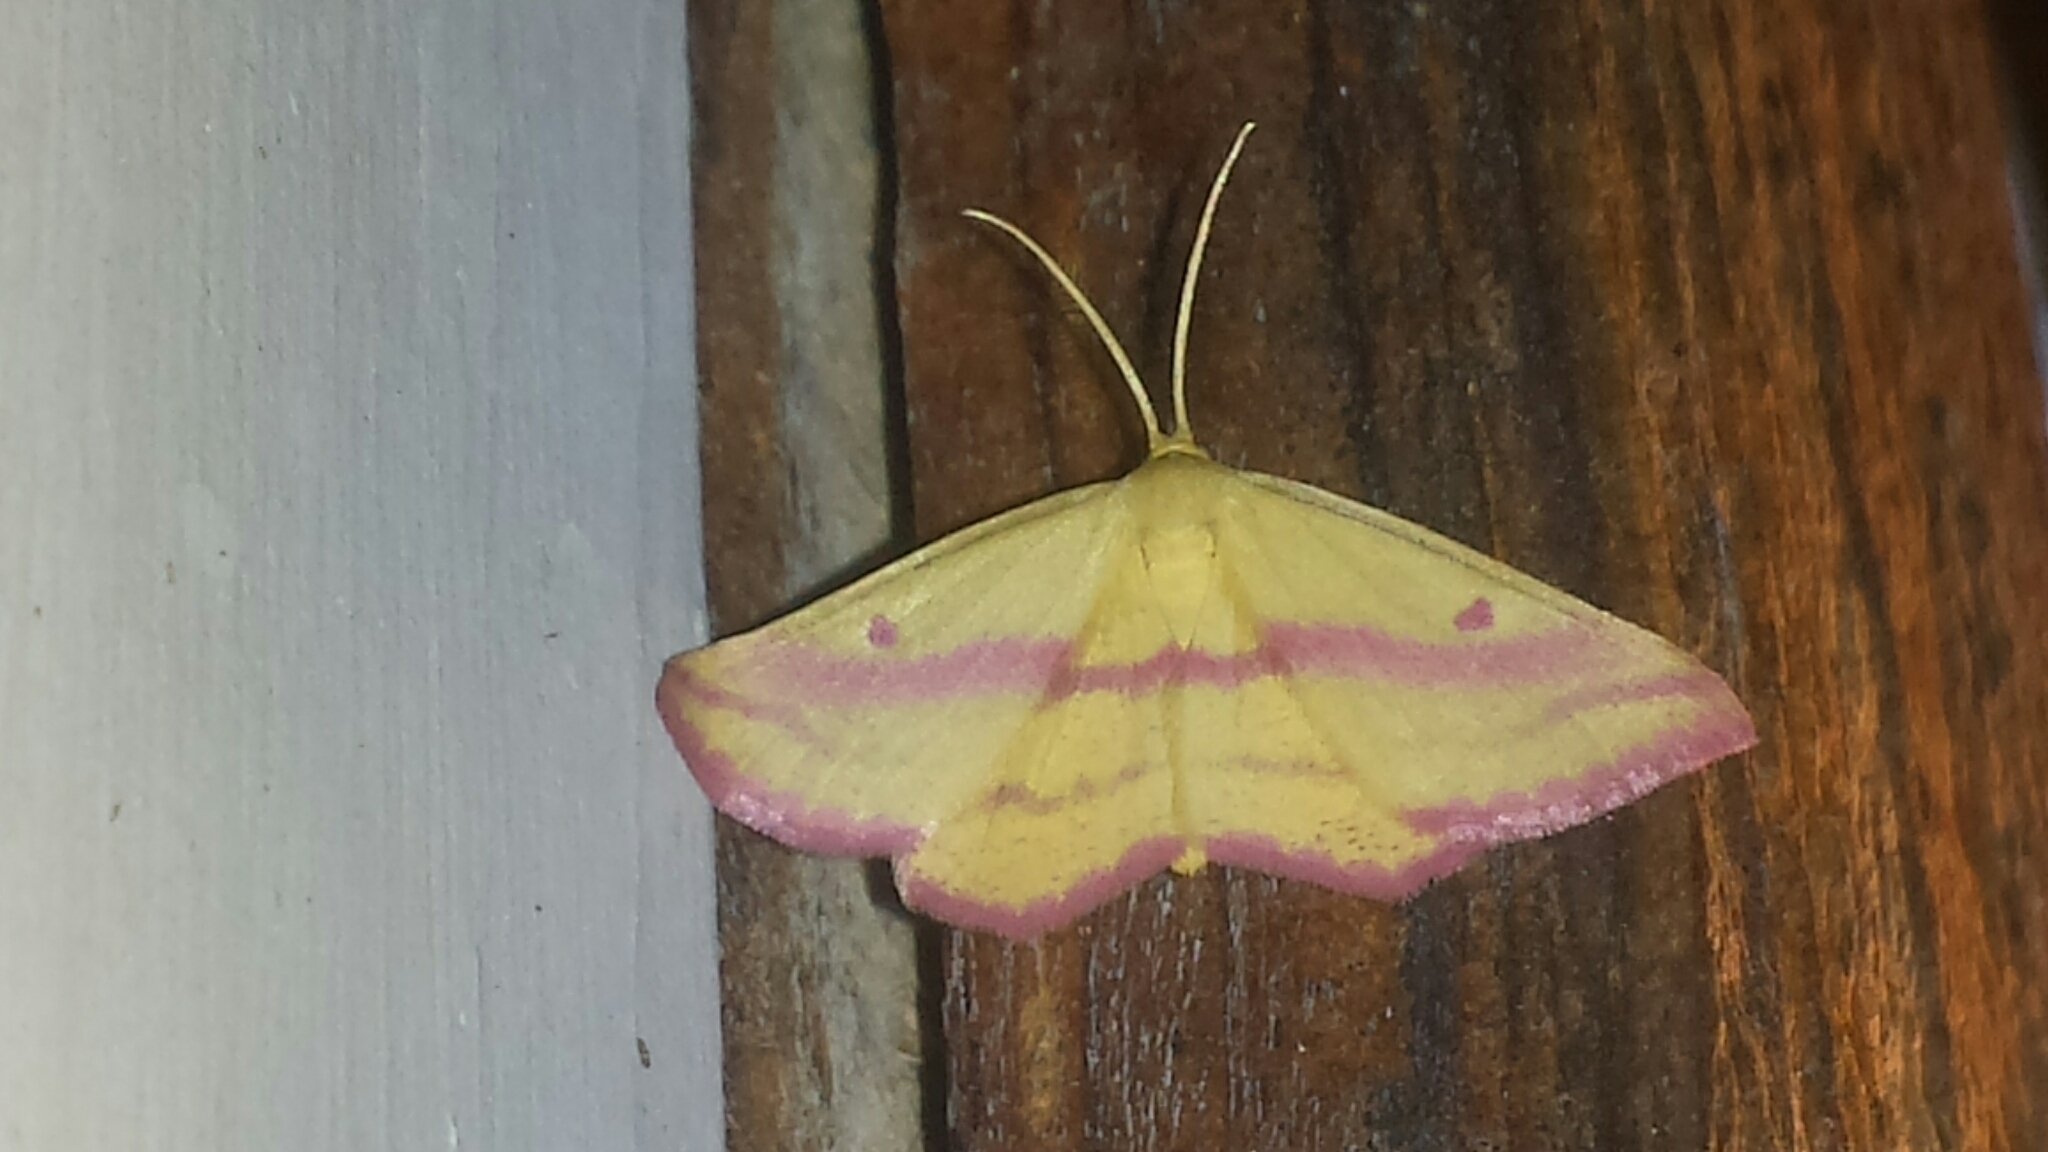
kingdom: Animalia
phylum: Arthropoda
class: Insecta
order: Lepidoptera
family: Geometridae
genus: Haematopis
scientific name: Haematopis grataria
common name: Chickweed geometer
